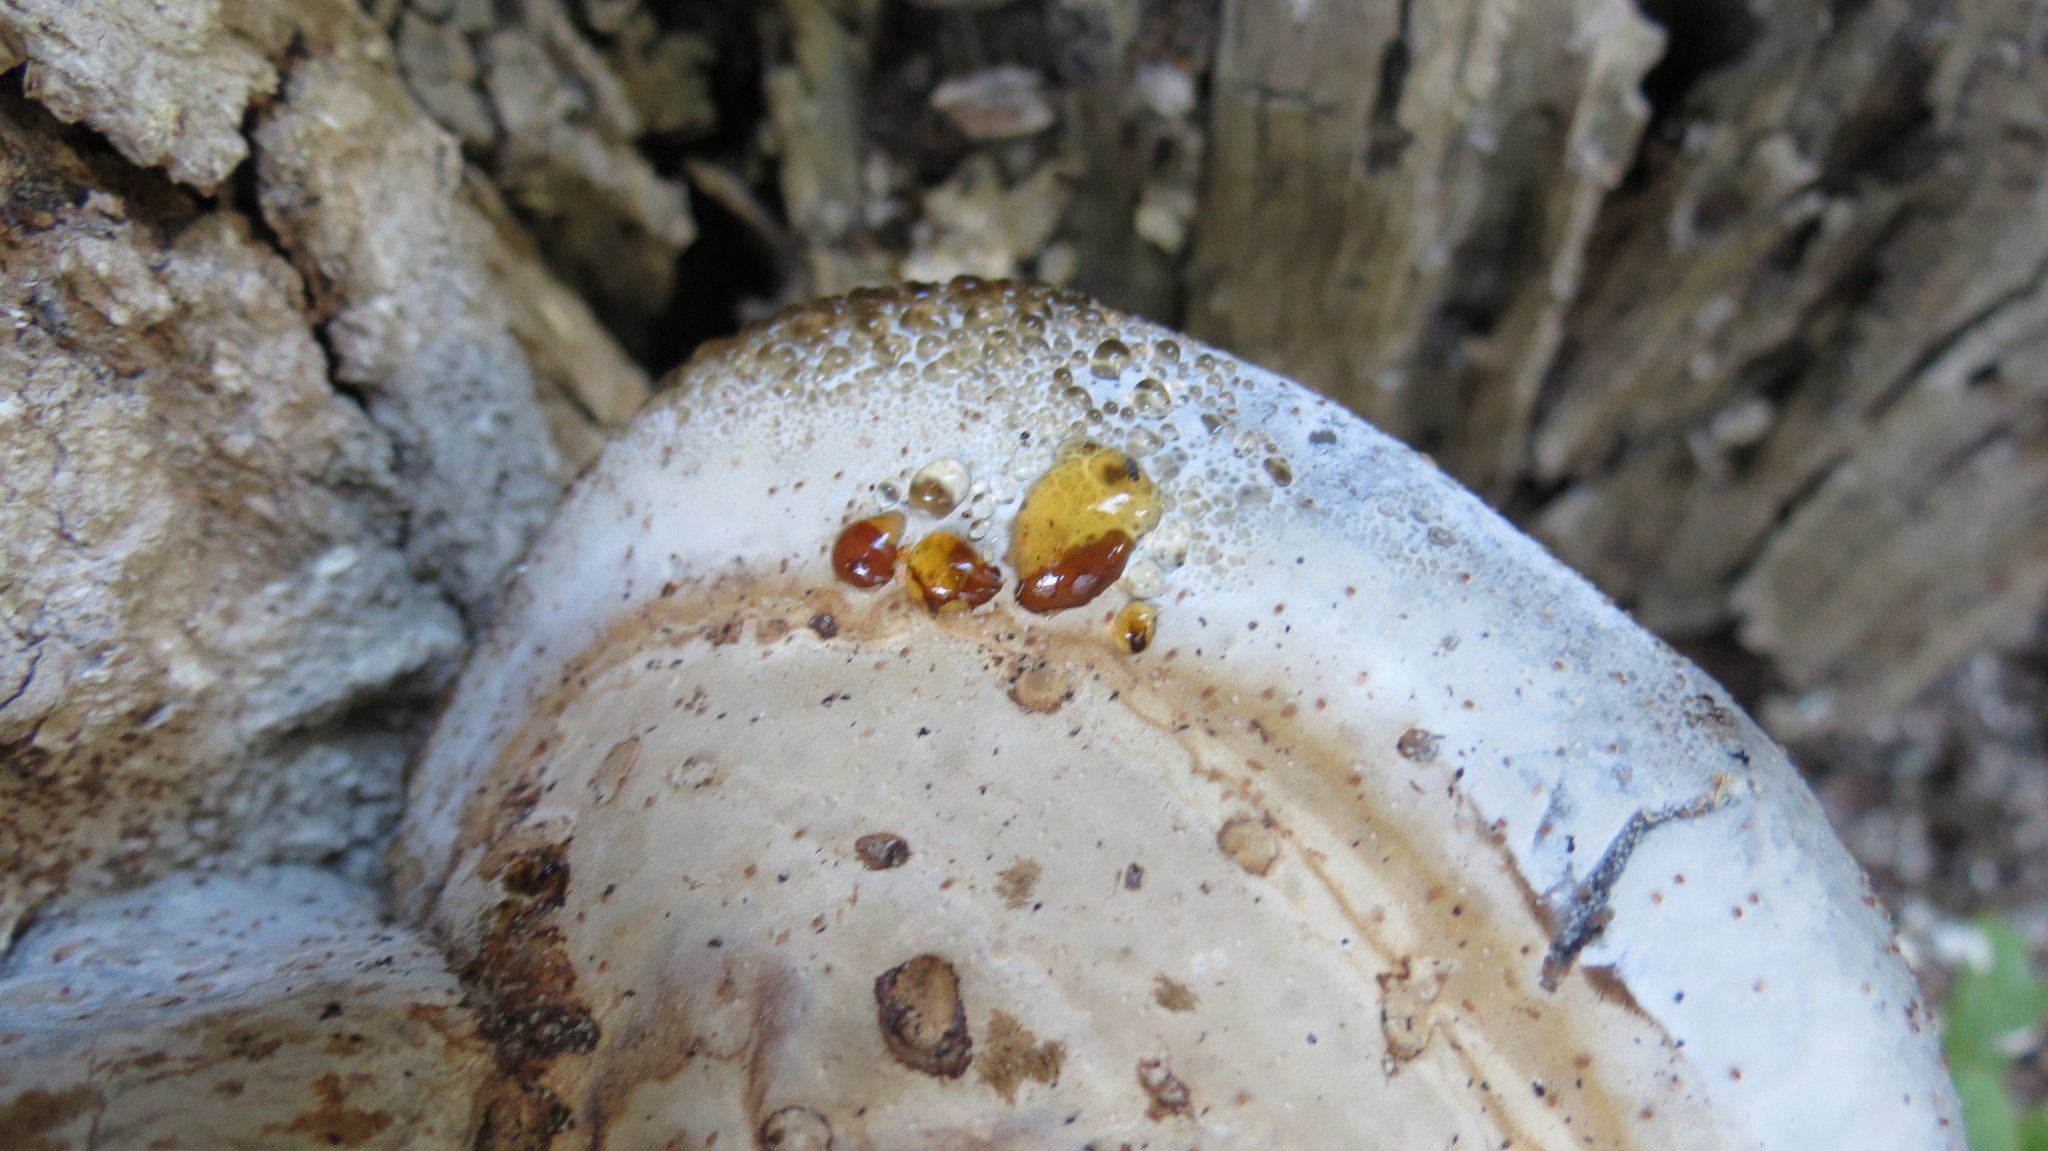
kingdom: Fungi
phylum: Basidiomycota
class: Agaricomycetes
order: Polyporales
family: Polyporaceae
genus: Fomes
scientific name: Fomes fomentarius
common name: Hoof fungus
